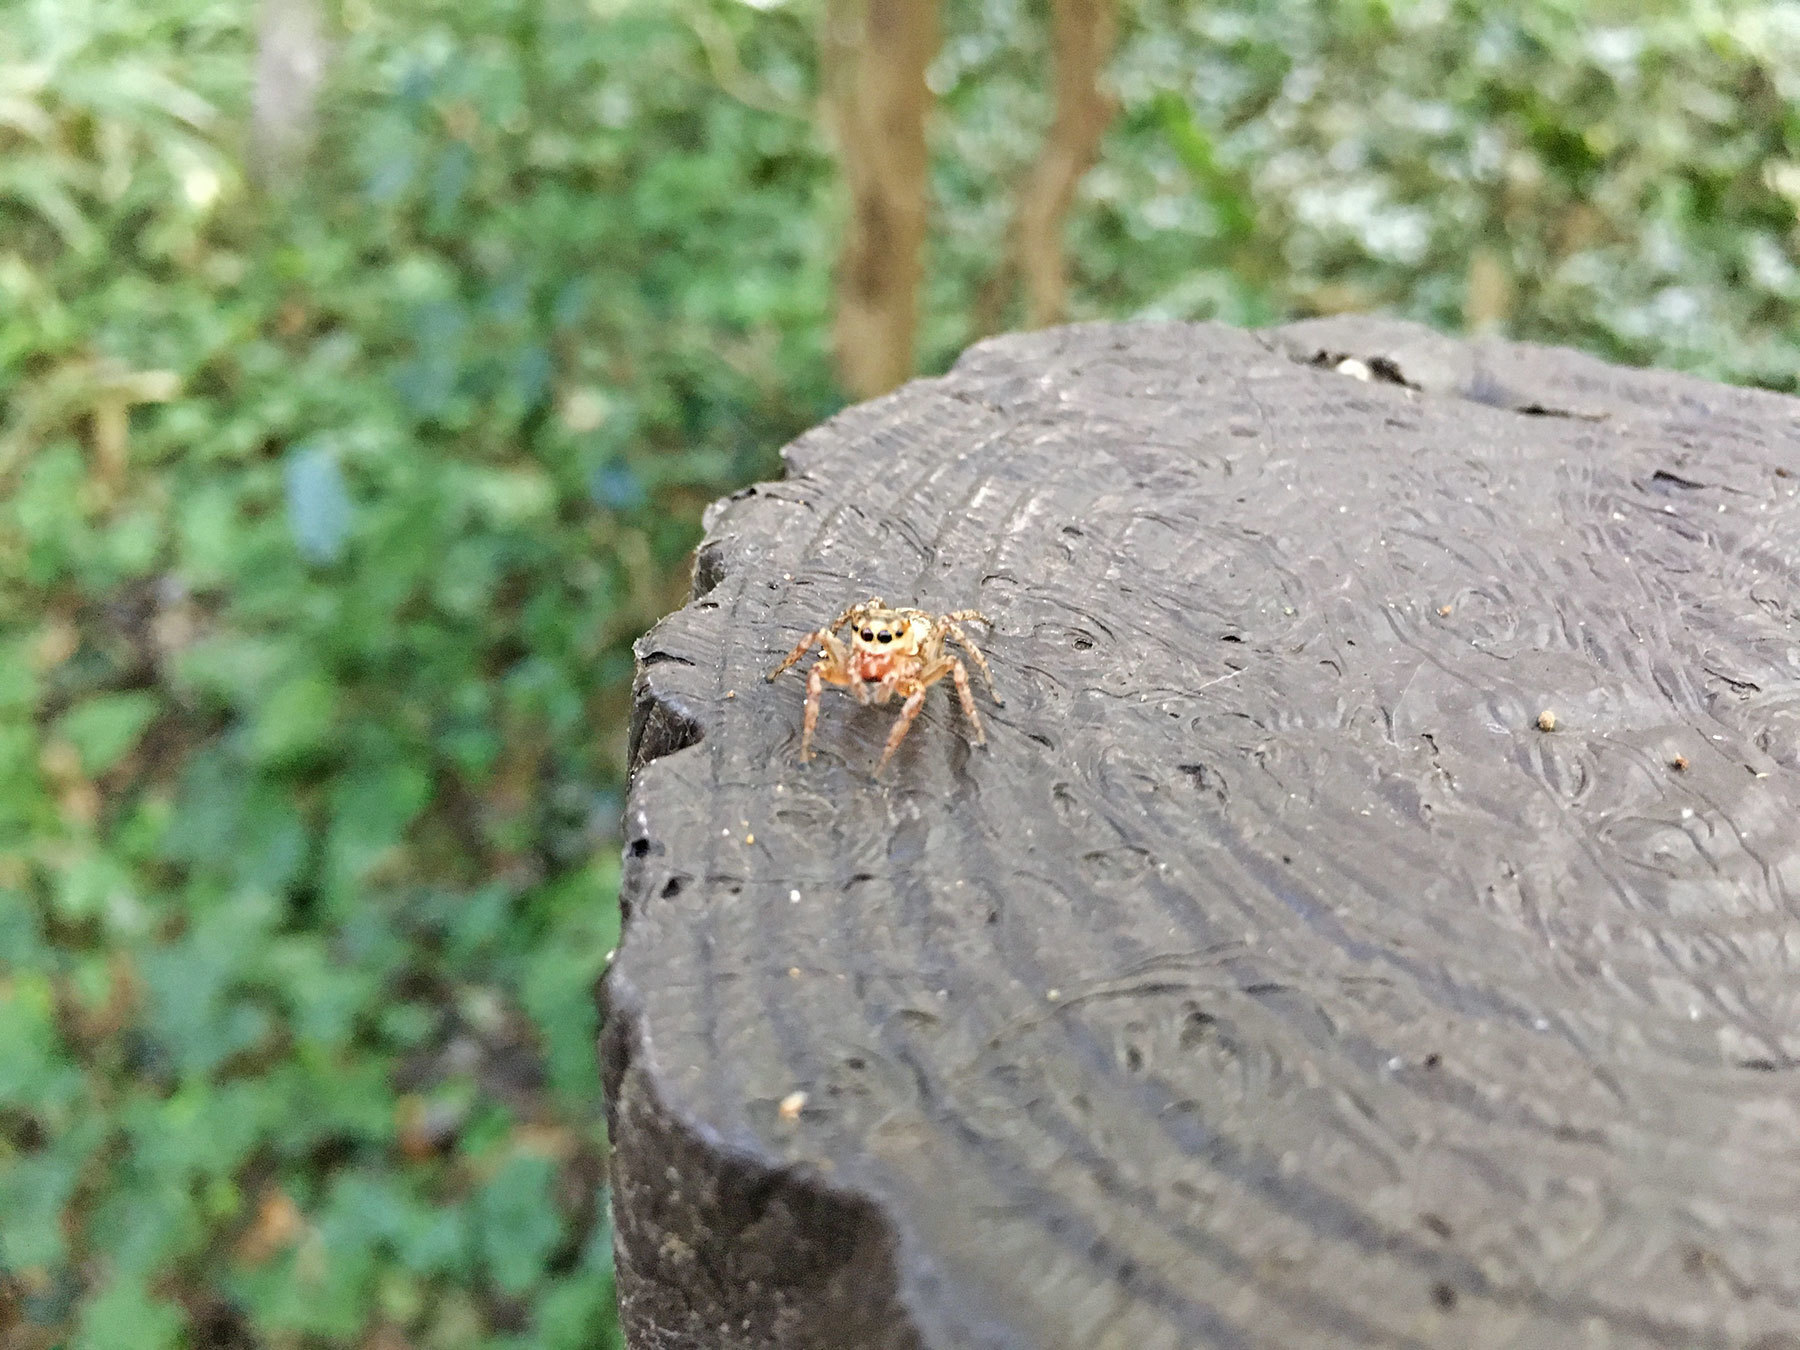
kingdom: Animalia
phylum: Arthropoda
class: Arachnida
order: Araneae
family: Salticidae
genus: Plexippoides
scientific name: Plexippoides doenitzi
